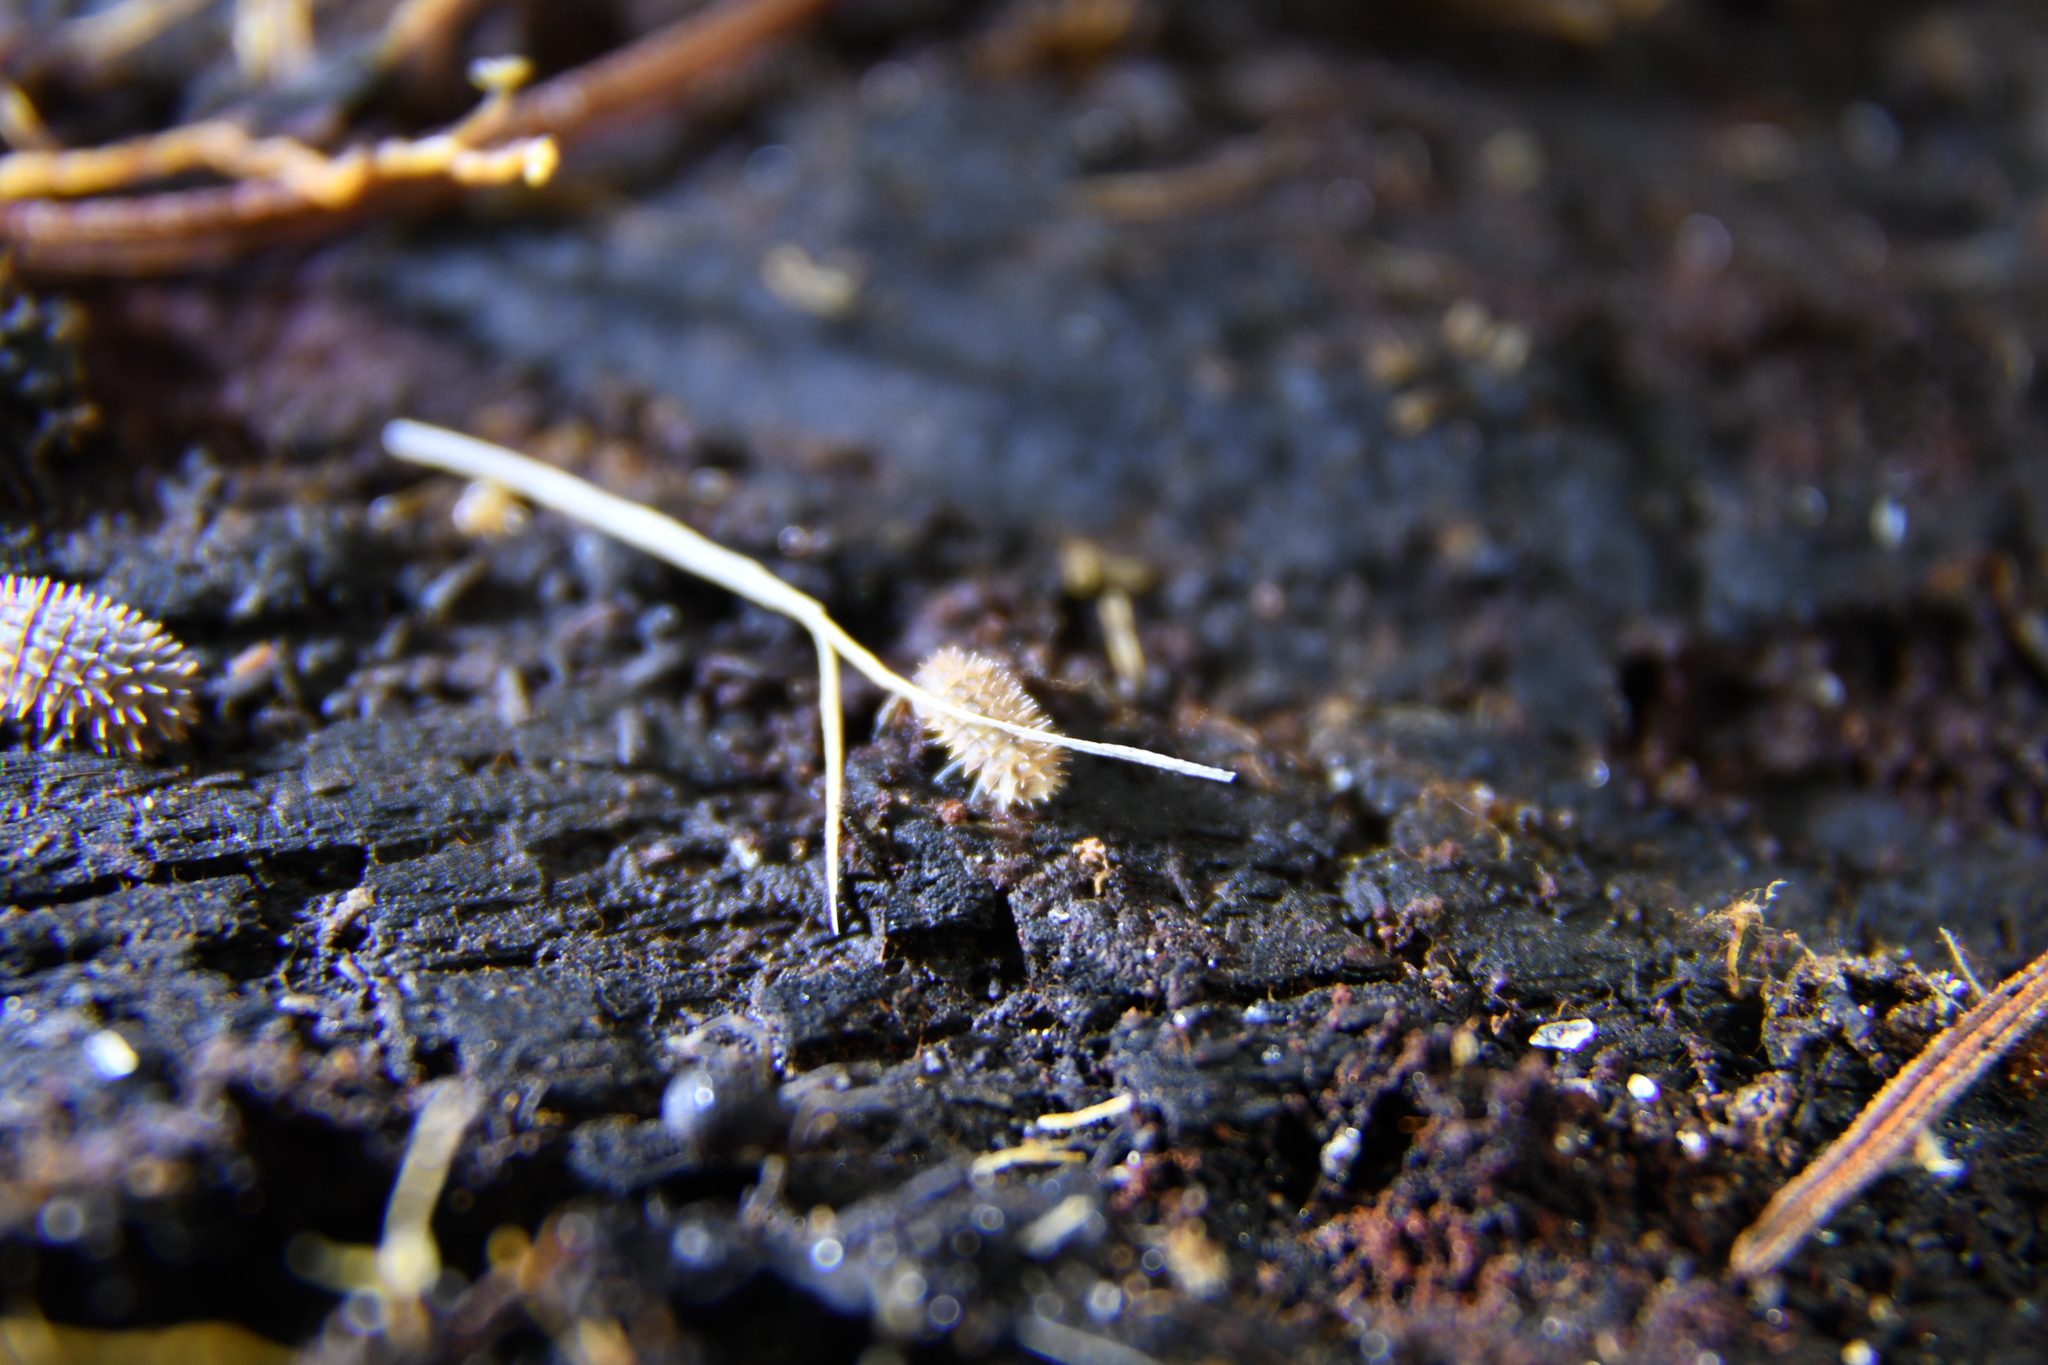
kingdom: Animalia
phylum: Arthropoda
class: Malacostraca
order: Isopoda
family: Armadillidae
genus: Pseudolaureola
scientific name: Pseudolaureola wilsmorei
